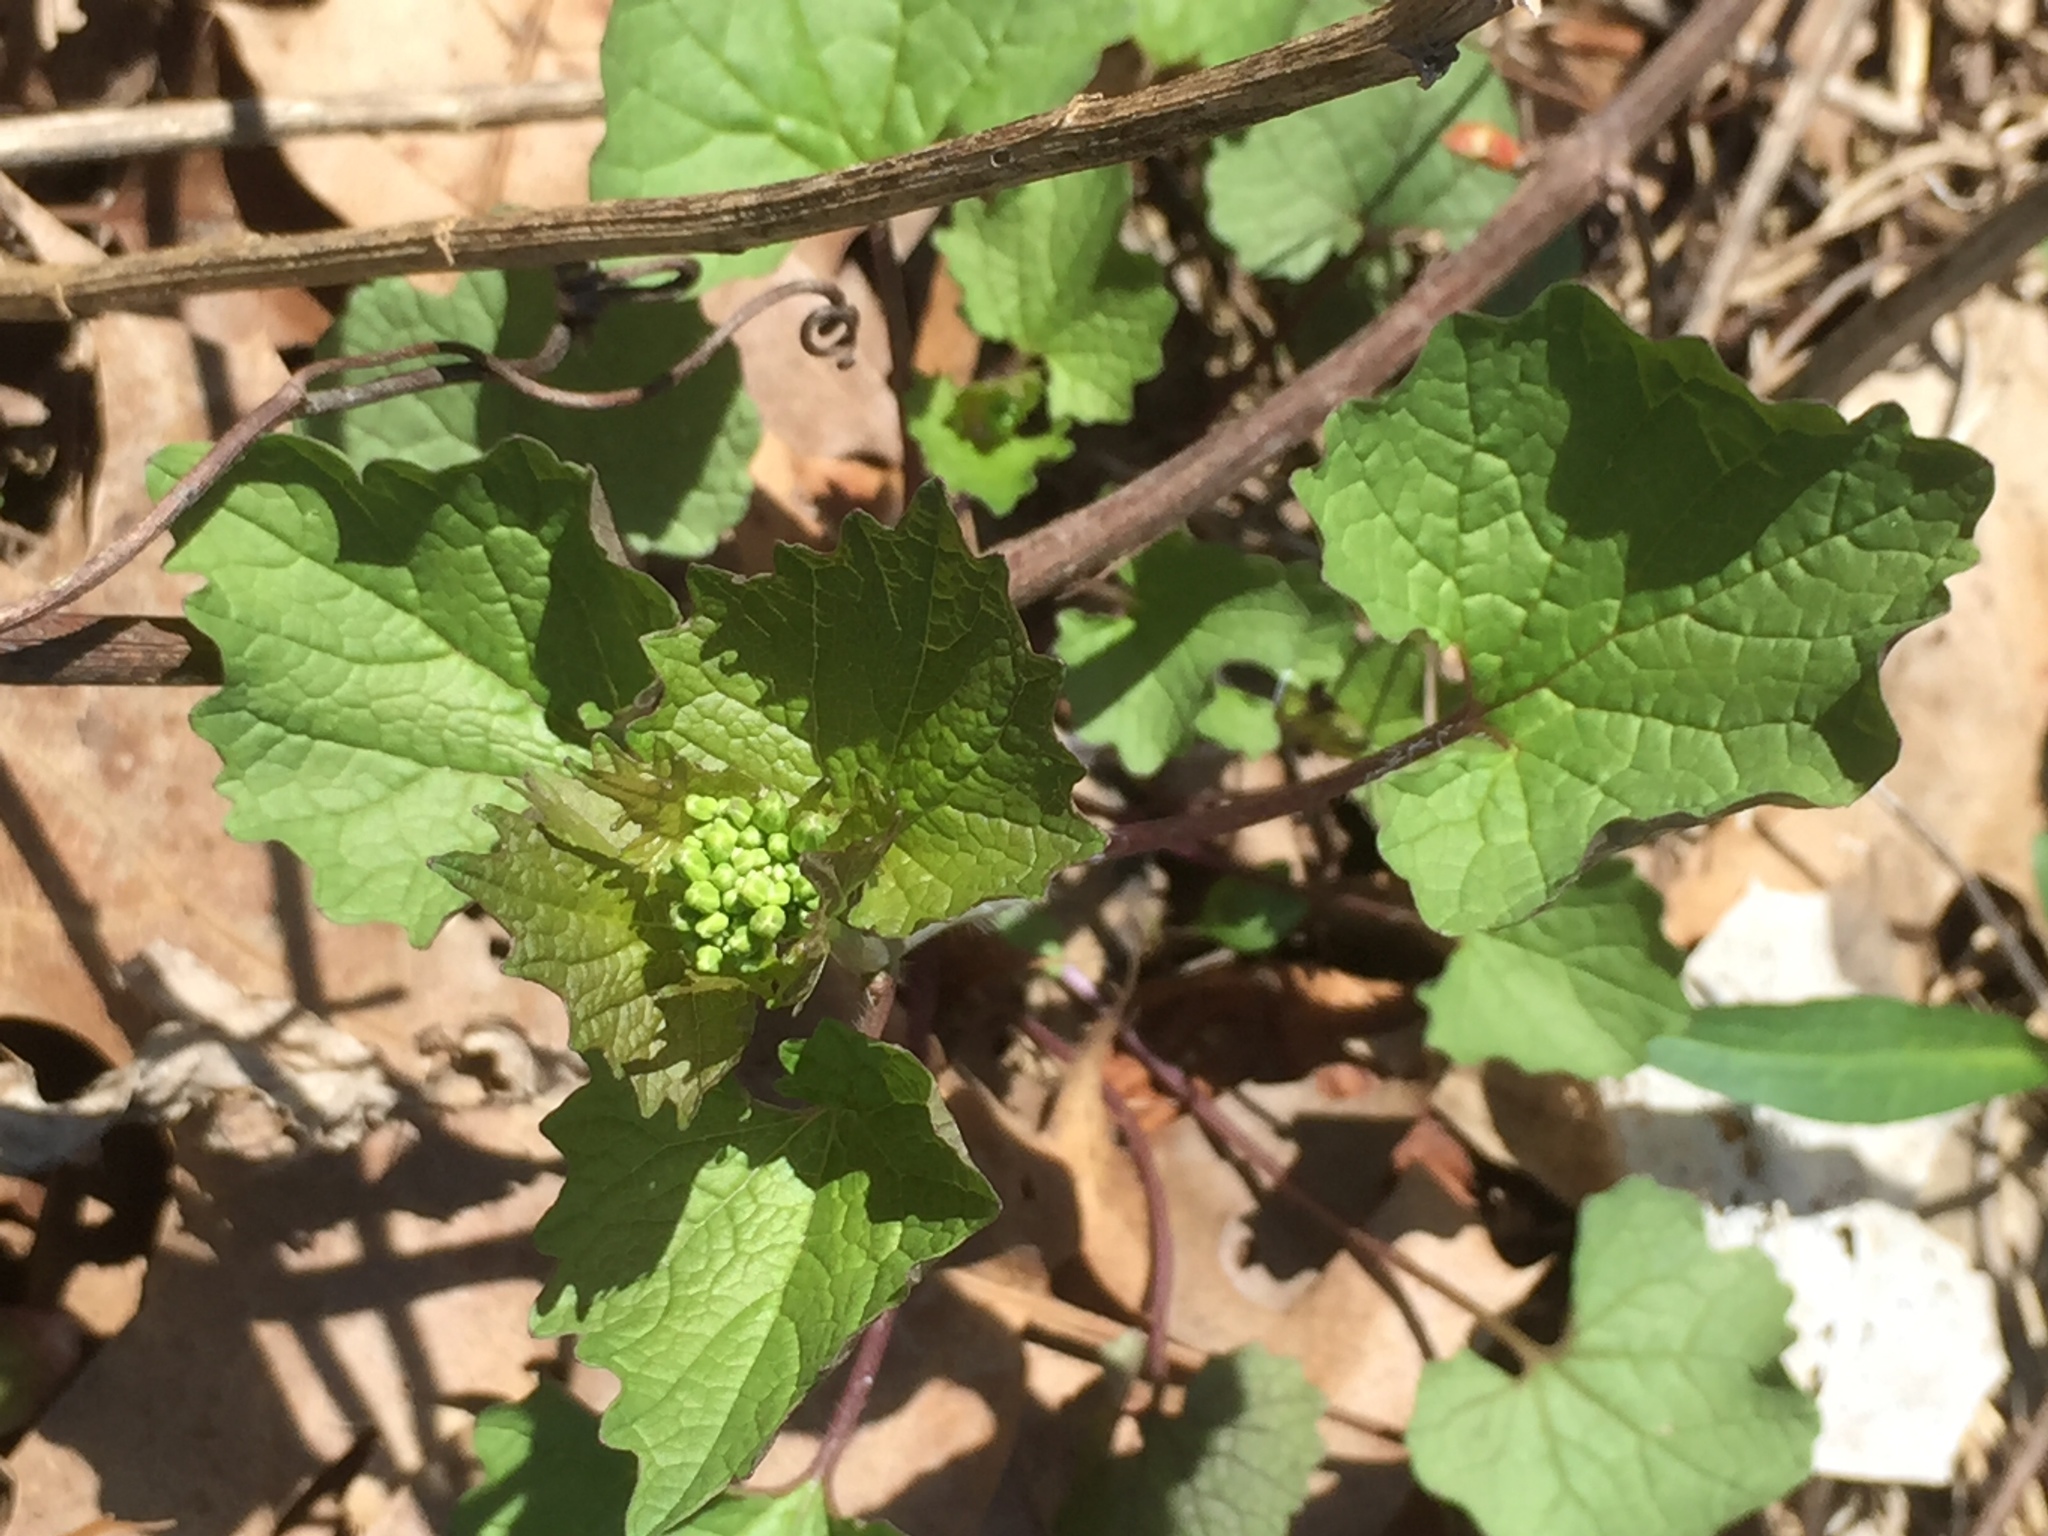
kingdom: Plantae
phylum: Tracheophyta
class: Magnoliopsida
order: Brassicales
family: Brassicaceae
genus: Alliaria
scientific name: Alliaria petiolata
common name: Garlic mustard
